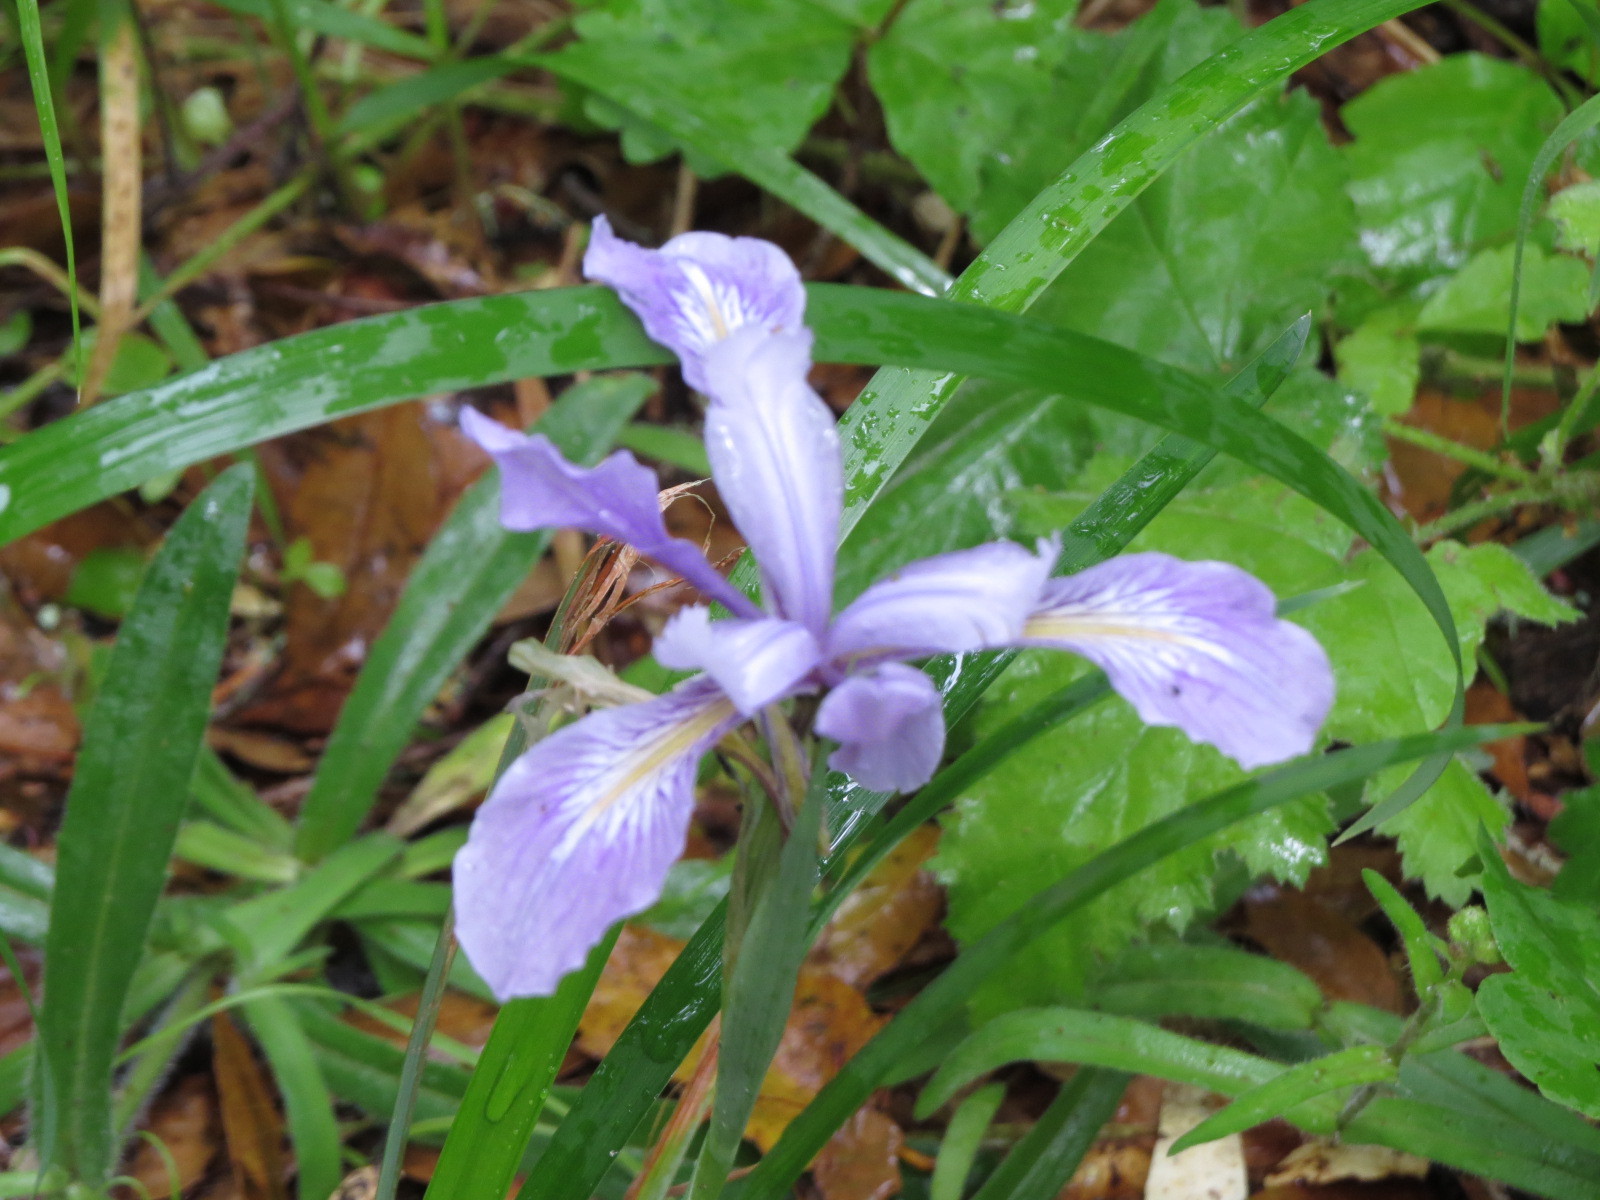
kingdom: Plantae
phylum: Tracheophyta
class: Liliopsida
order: Asparagales
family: Iridaceae
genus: Iris
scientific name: Iris douglasiana
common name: Marin iris
